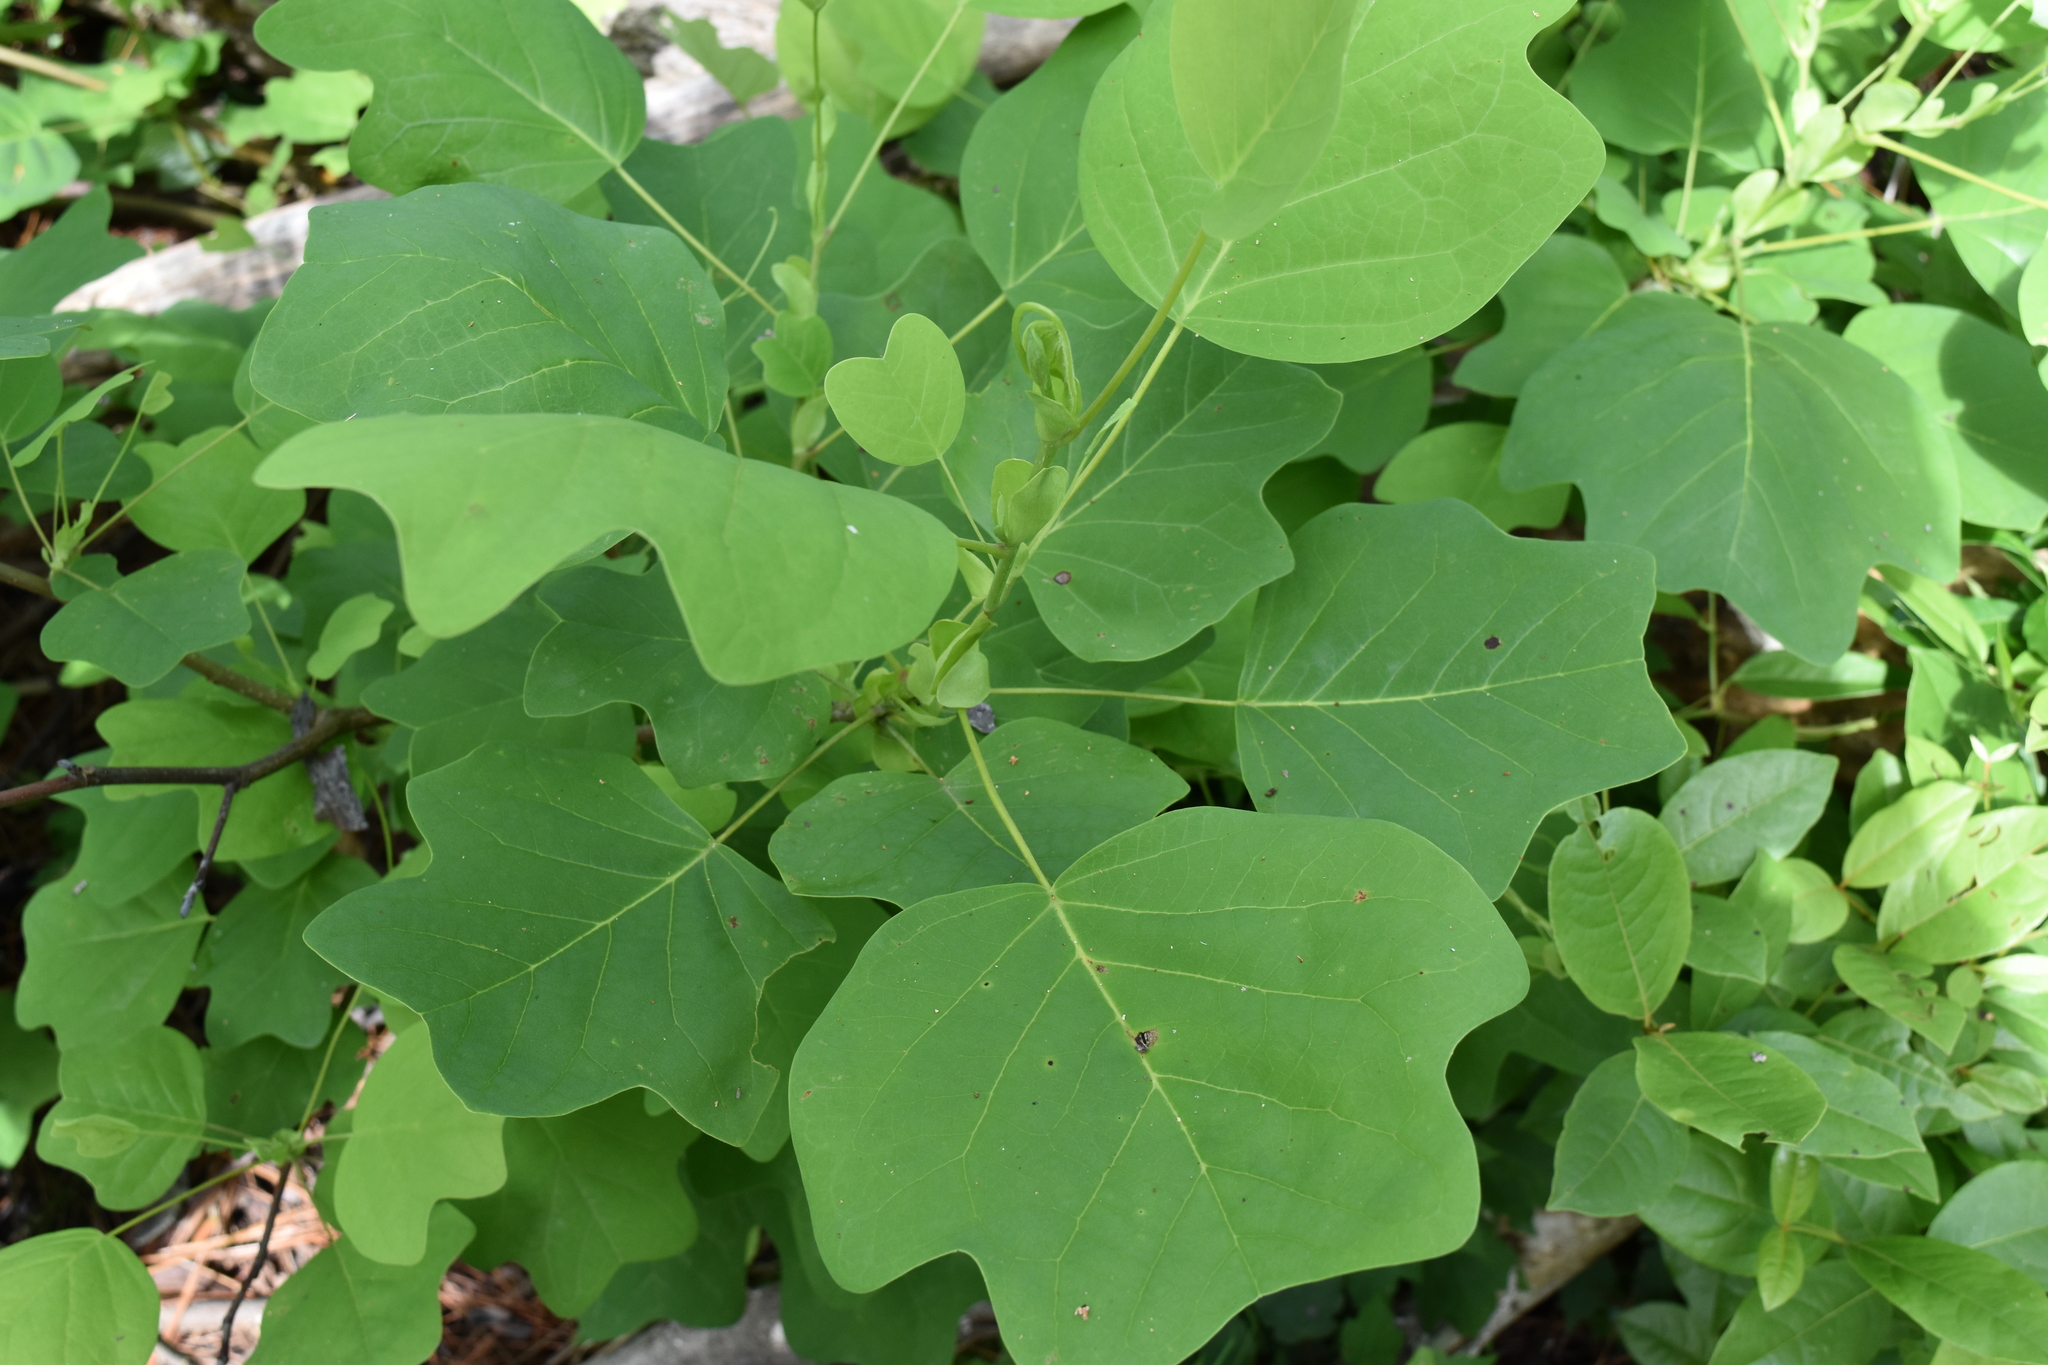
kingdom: Plantae
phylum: Tracheophyta
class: Magnoliopsida
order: Magnoliales
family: Magnoliaceae
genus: Liriodendron
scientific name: Liriodendron tulipifera
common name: Tulip tree
